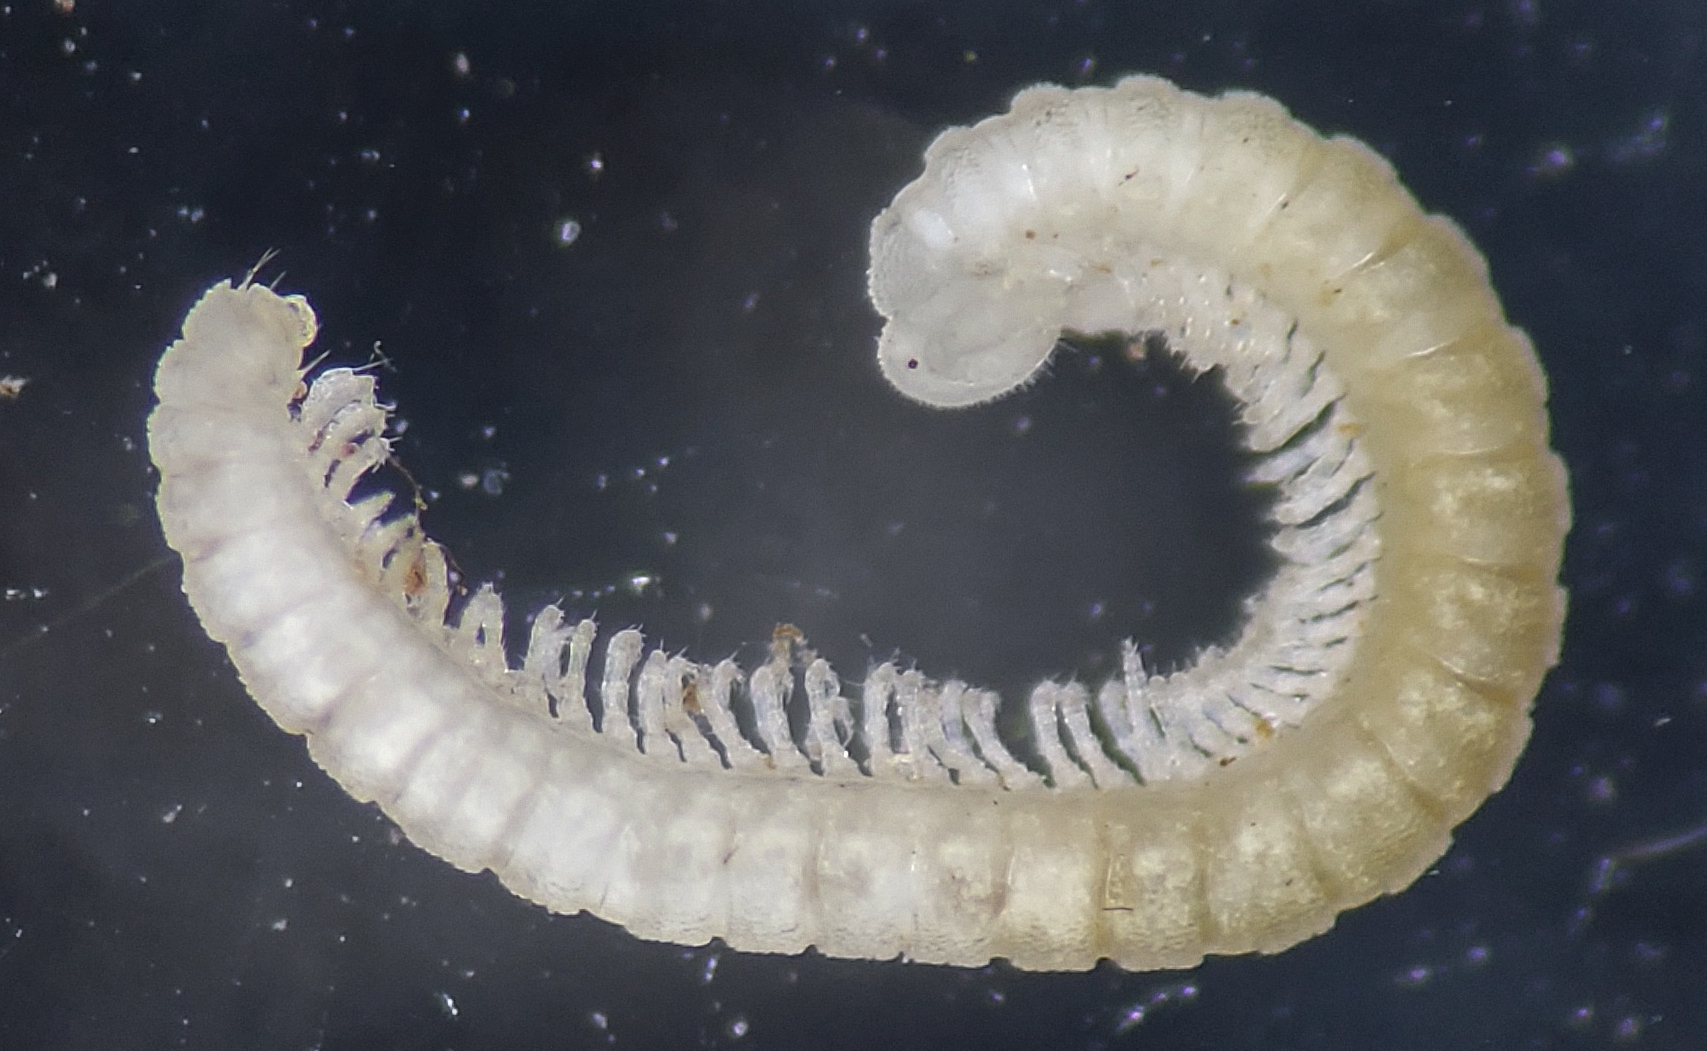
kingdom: Animalia
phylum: Arthropoda
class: Diplopoda
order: Chordeumatida
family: Buotidae
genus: Buotus
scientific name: Buotus carolinus
